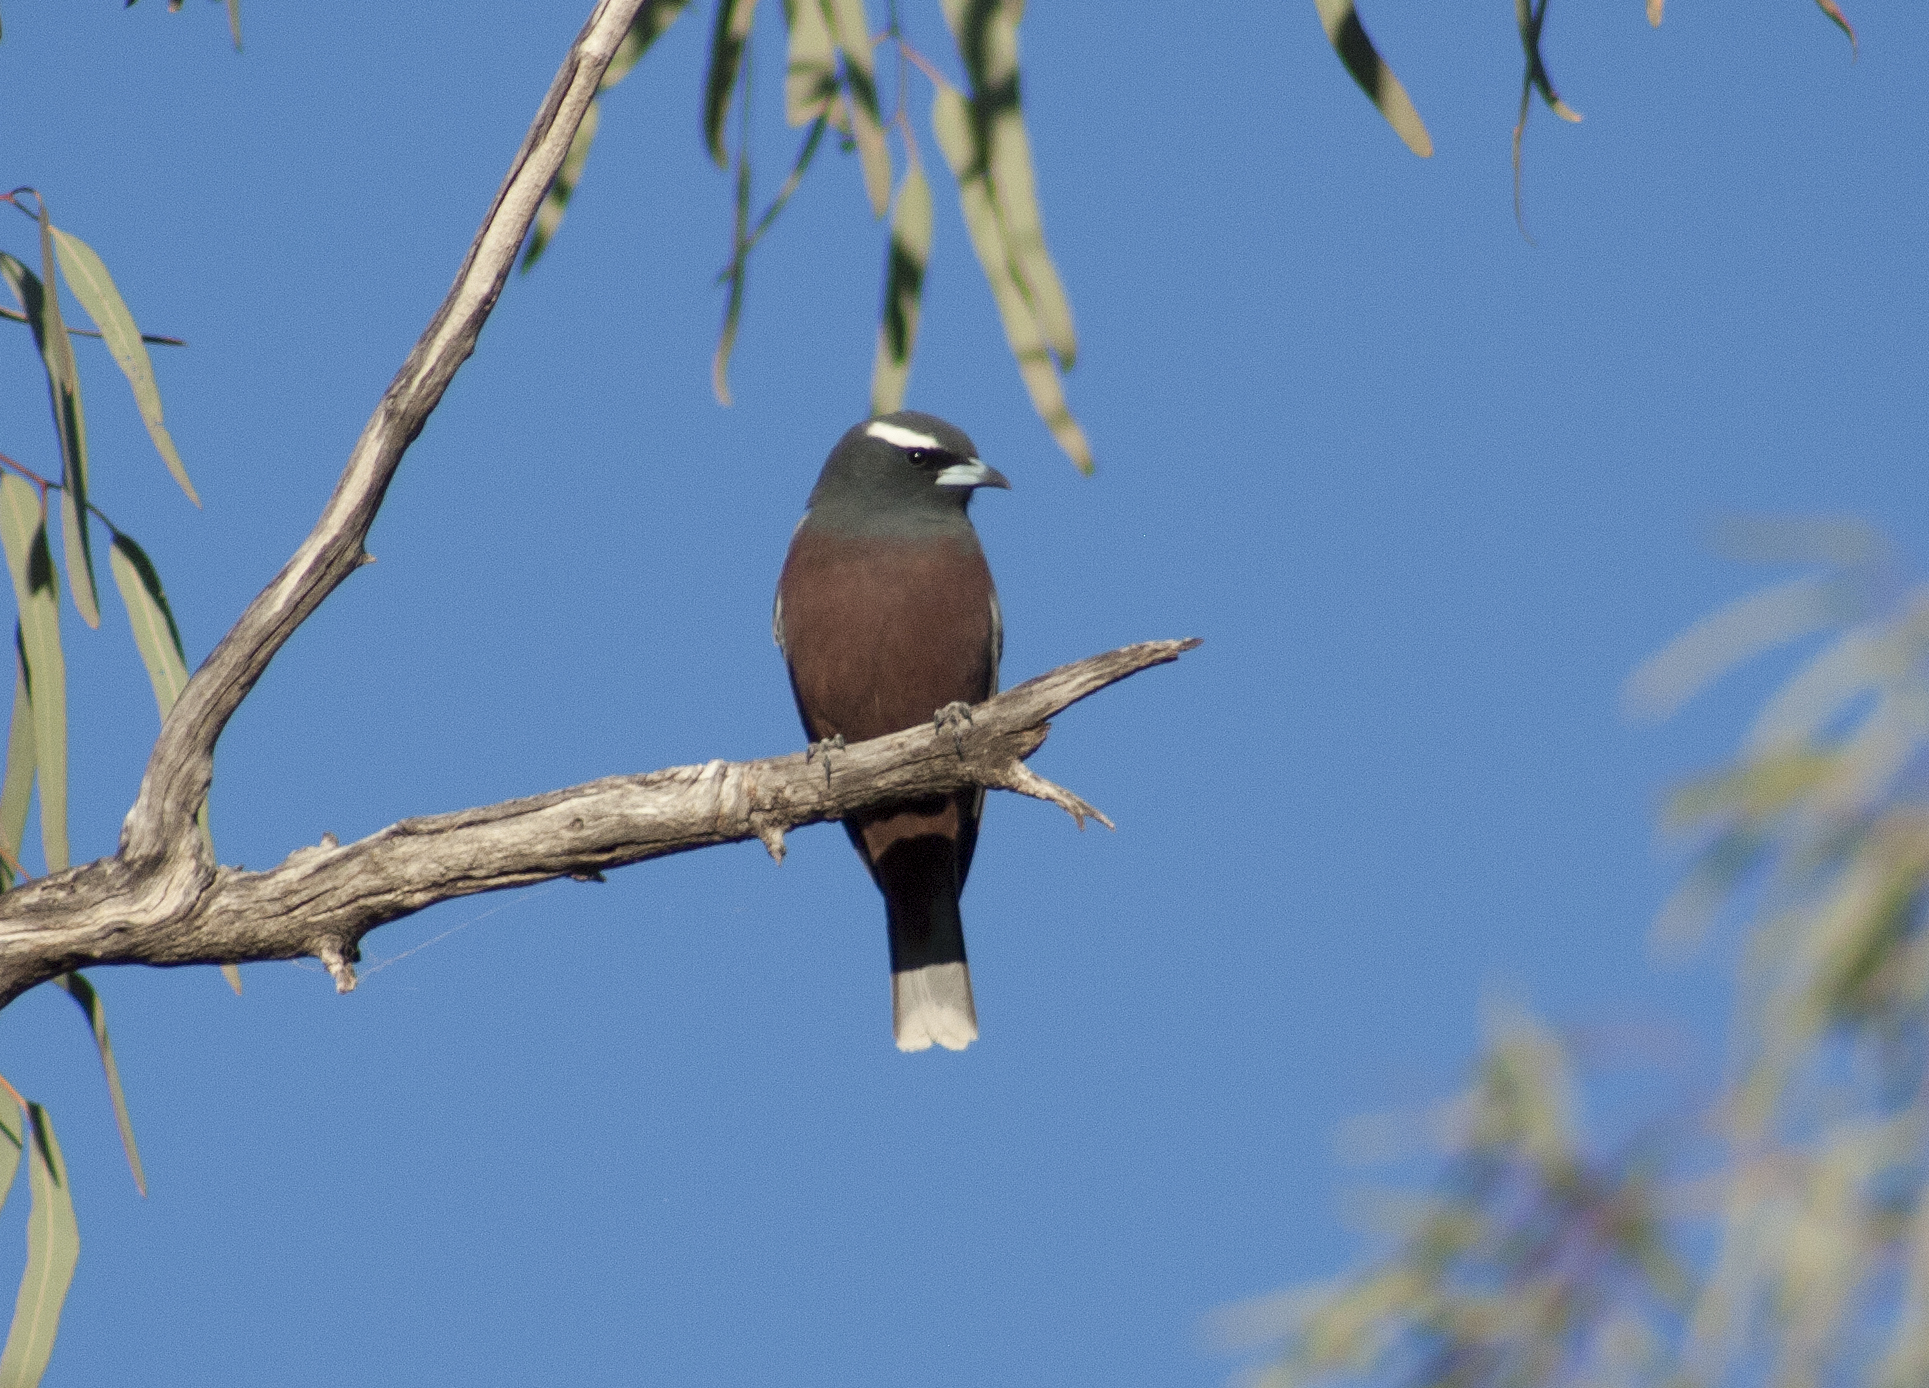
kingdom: Animalia
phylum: Chordata
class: Aves
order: Passeriformes
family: Artamidae
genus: Artamus
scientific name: Artamus superciliosus
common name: White-browed woodswallow
